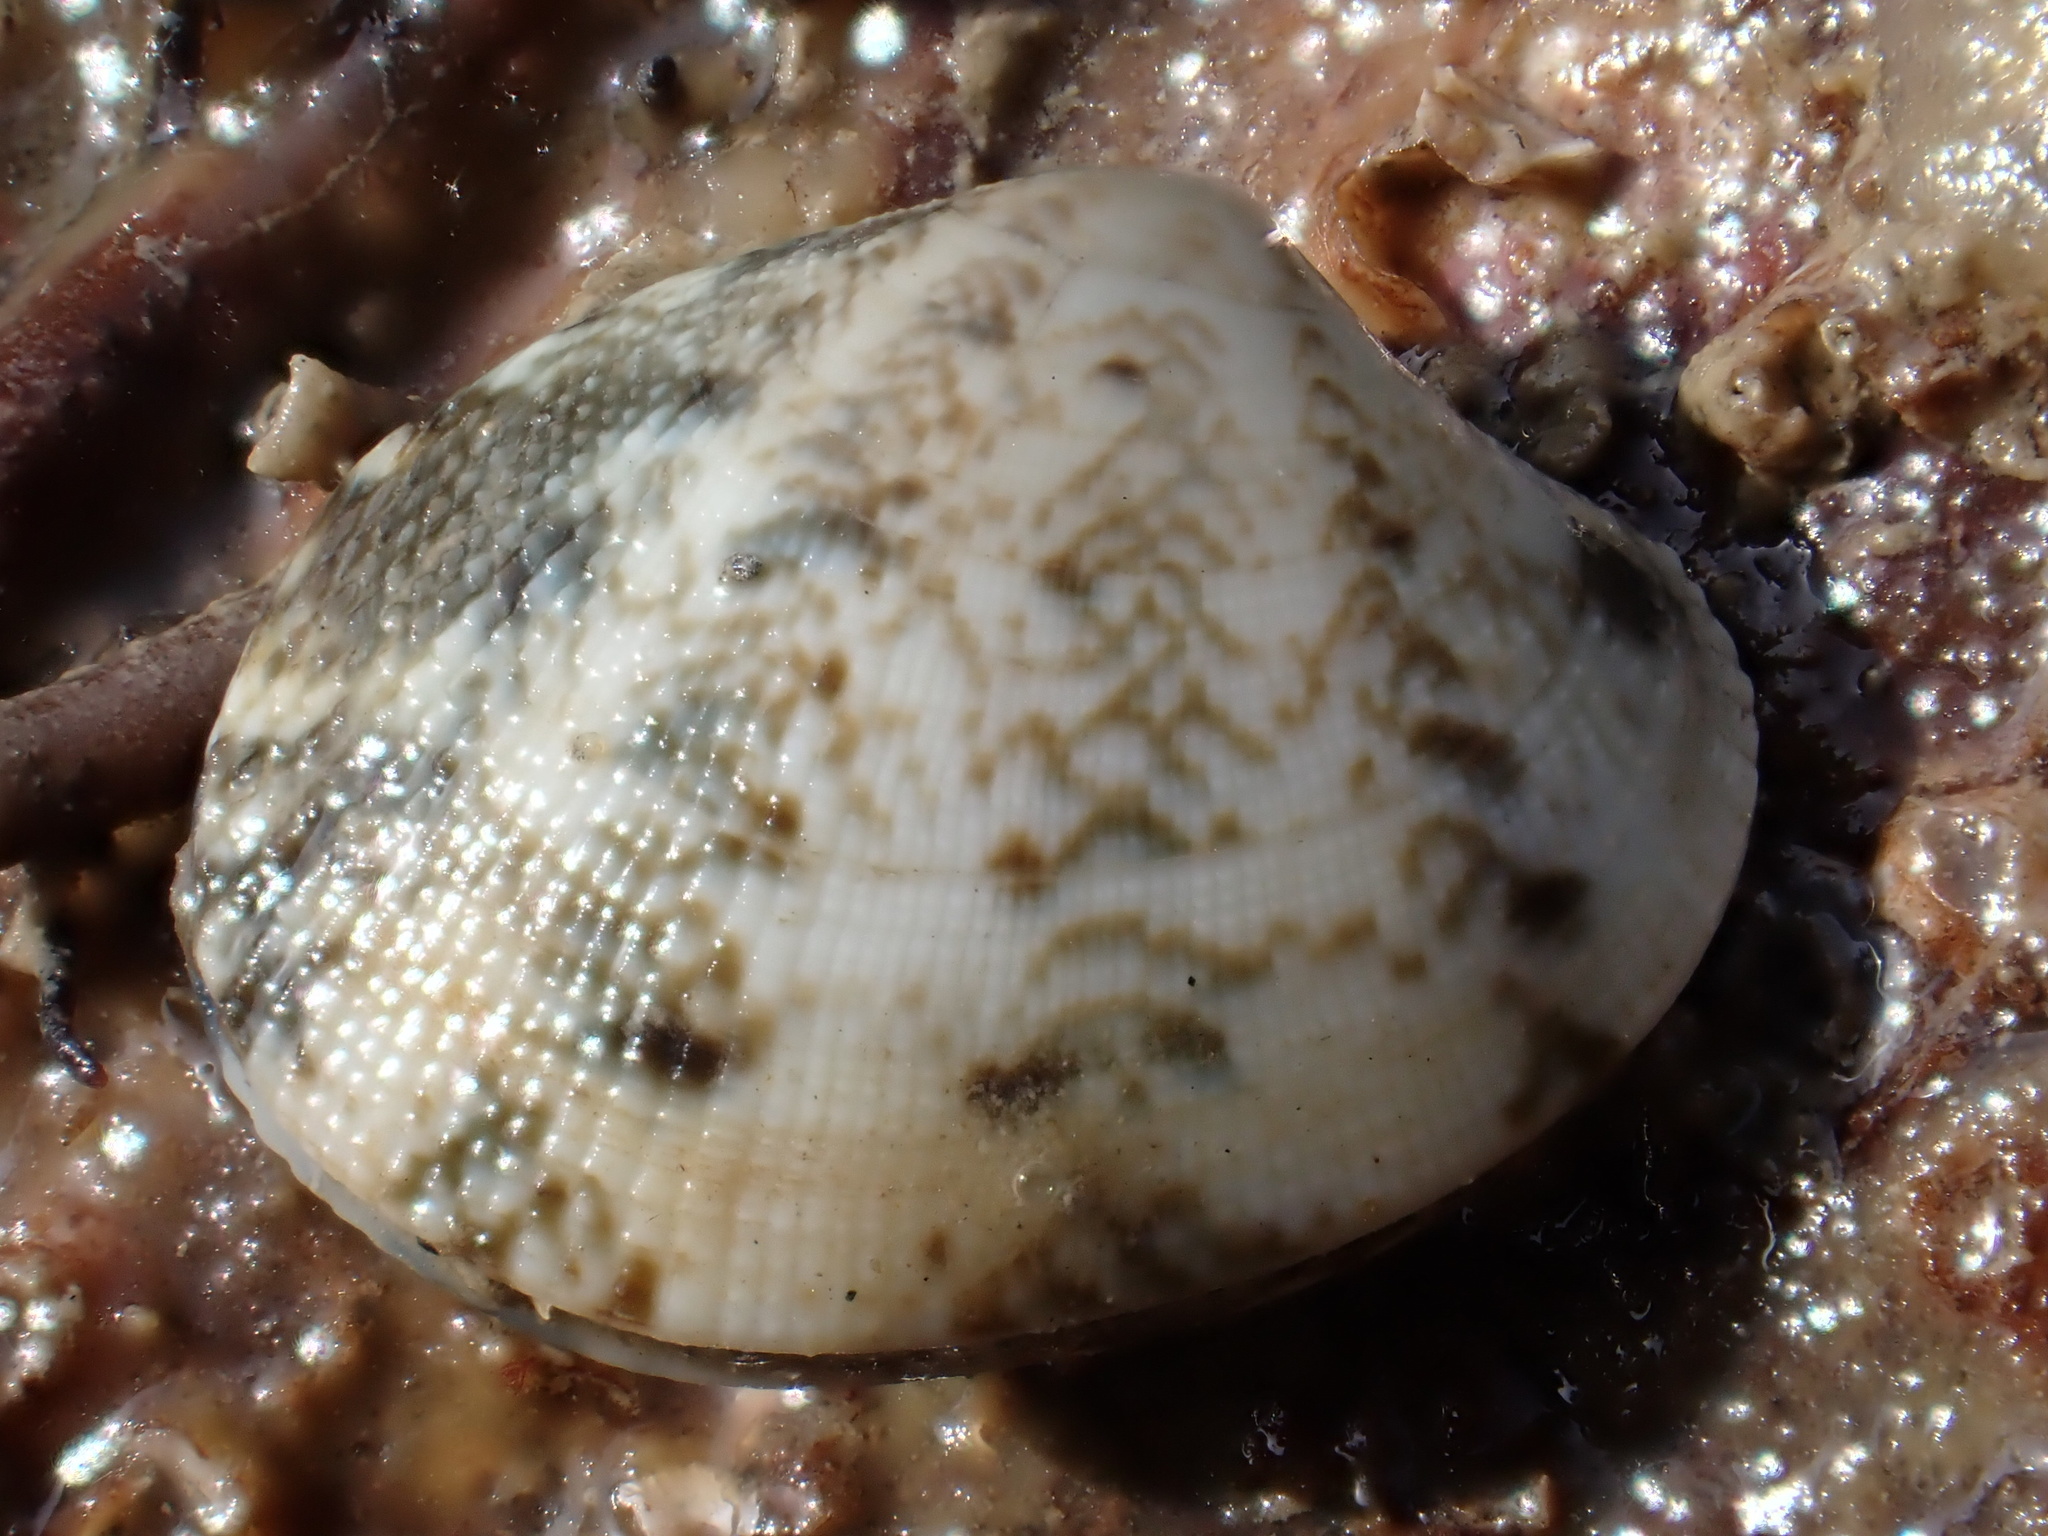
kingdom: Animalia
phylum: Mollusca
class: Bivalvia
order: Venerida
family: Veneridae
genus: Ruditapes
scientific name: Ruditapes philippinarum
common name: Manila clam
